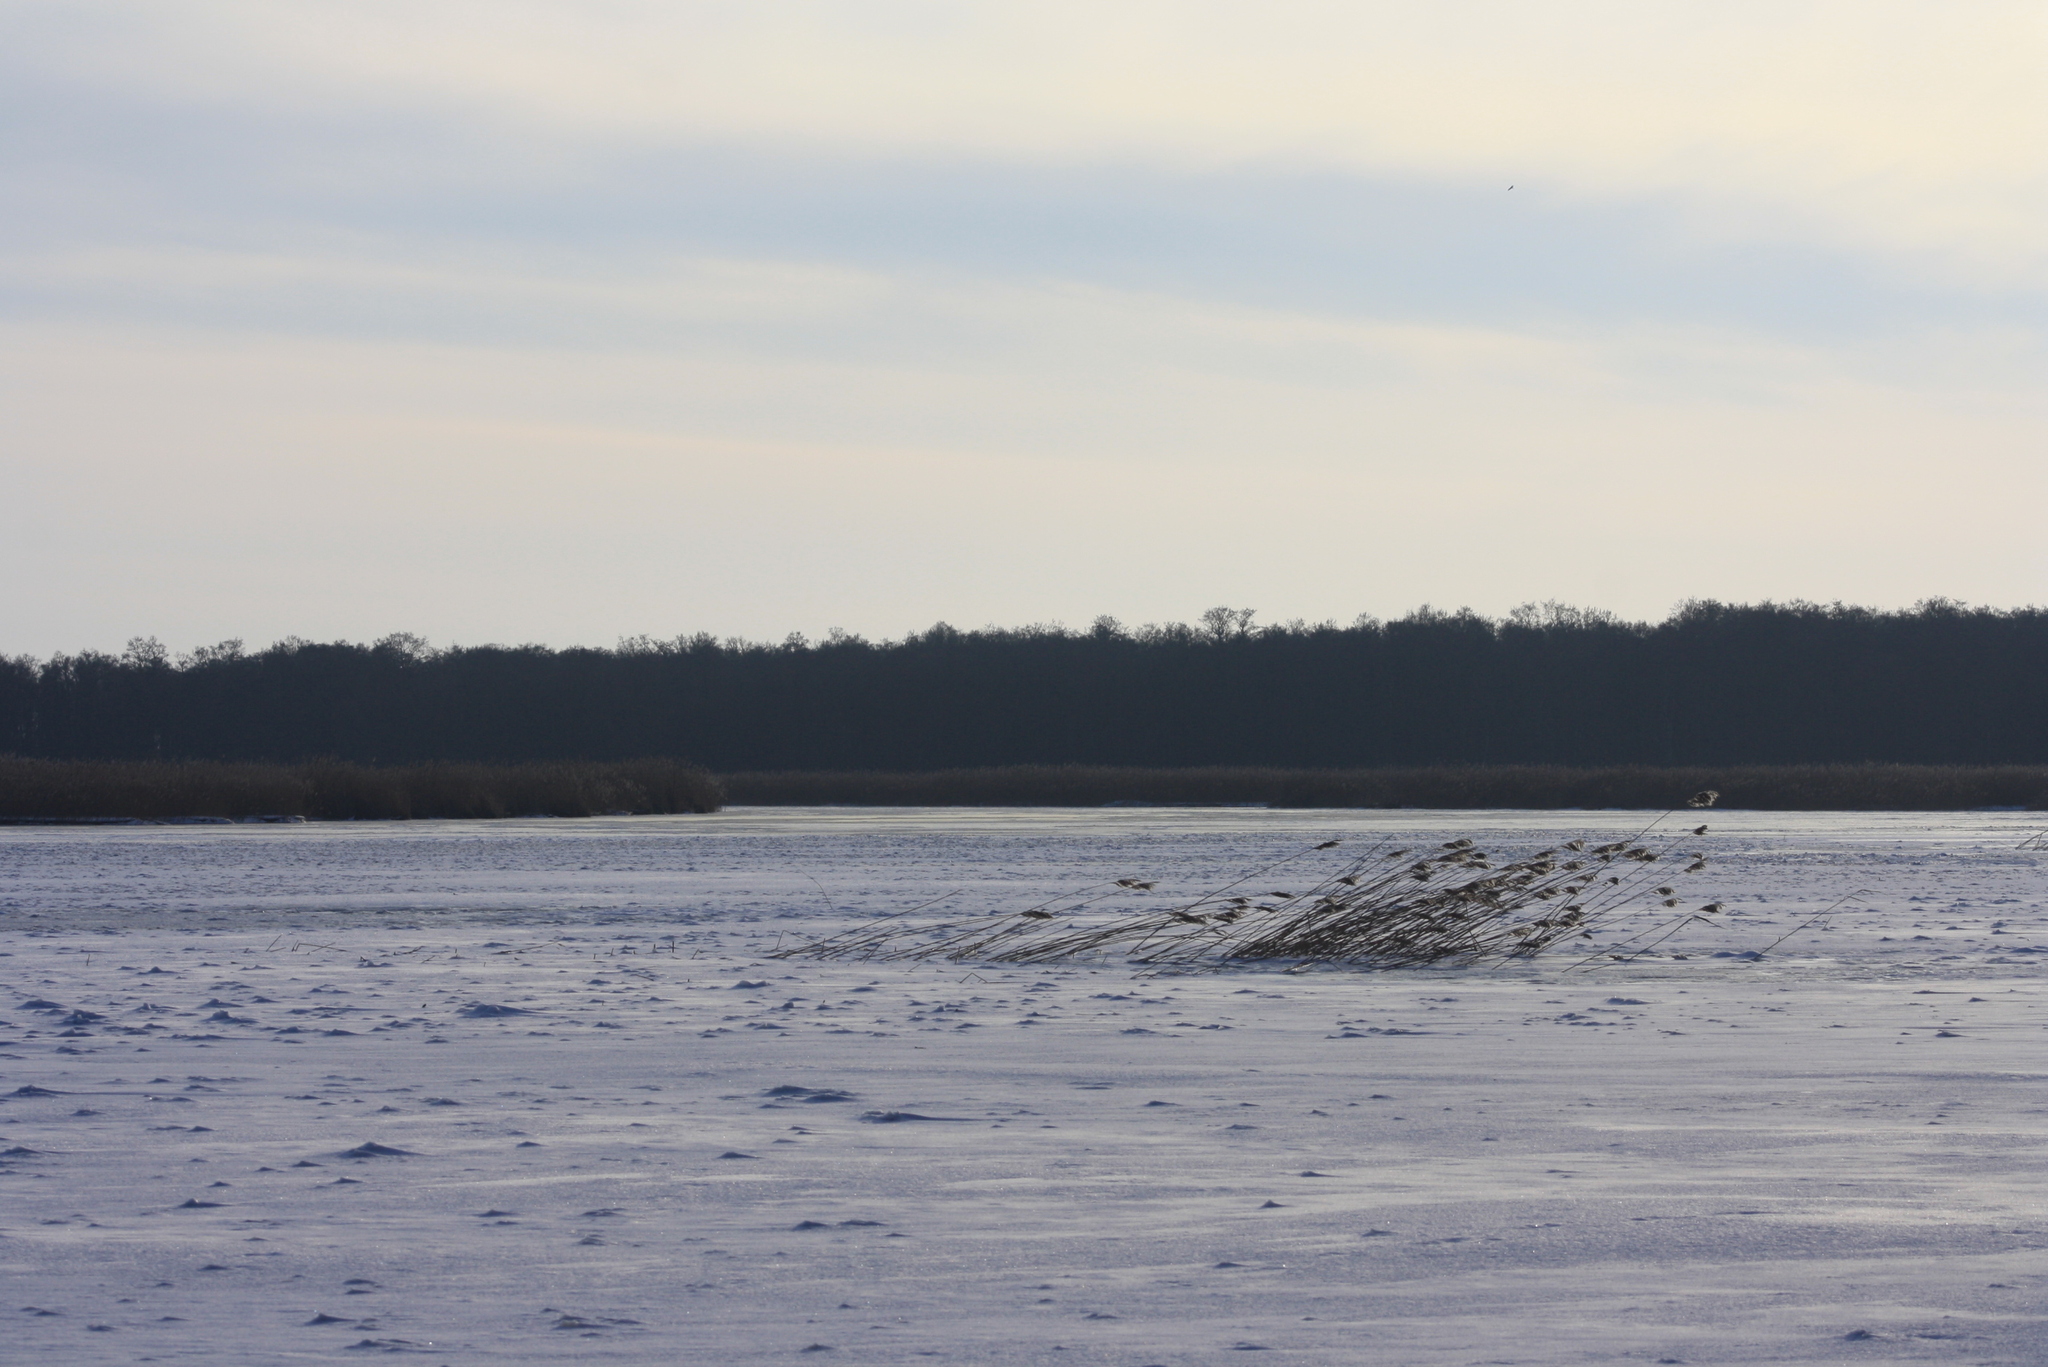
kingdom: Plantae
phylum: Tracheophyta
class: Liliopsida
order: Poales
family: Poaceae
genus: Phragmites
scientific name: Phragmites australis
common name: Common reed
